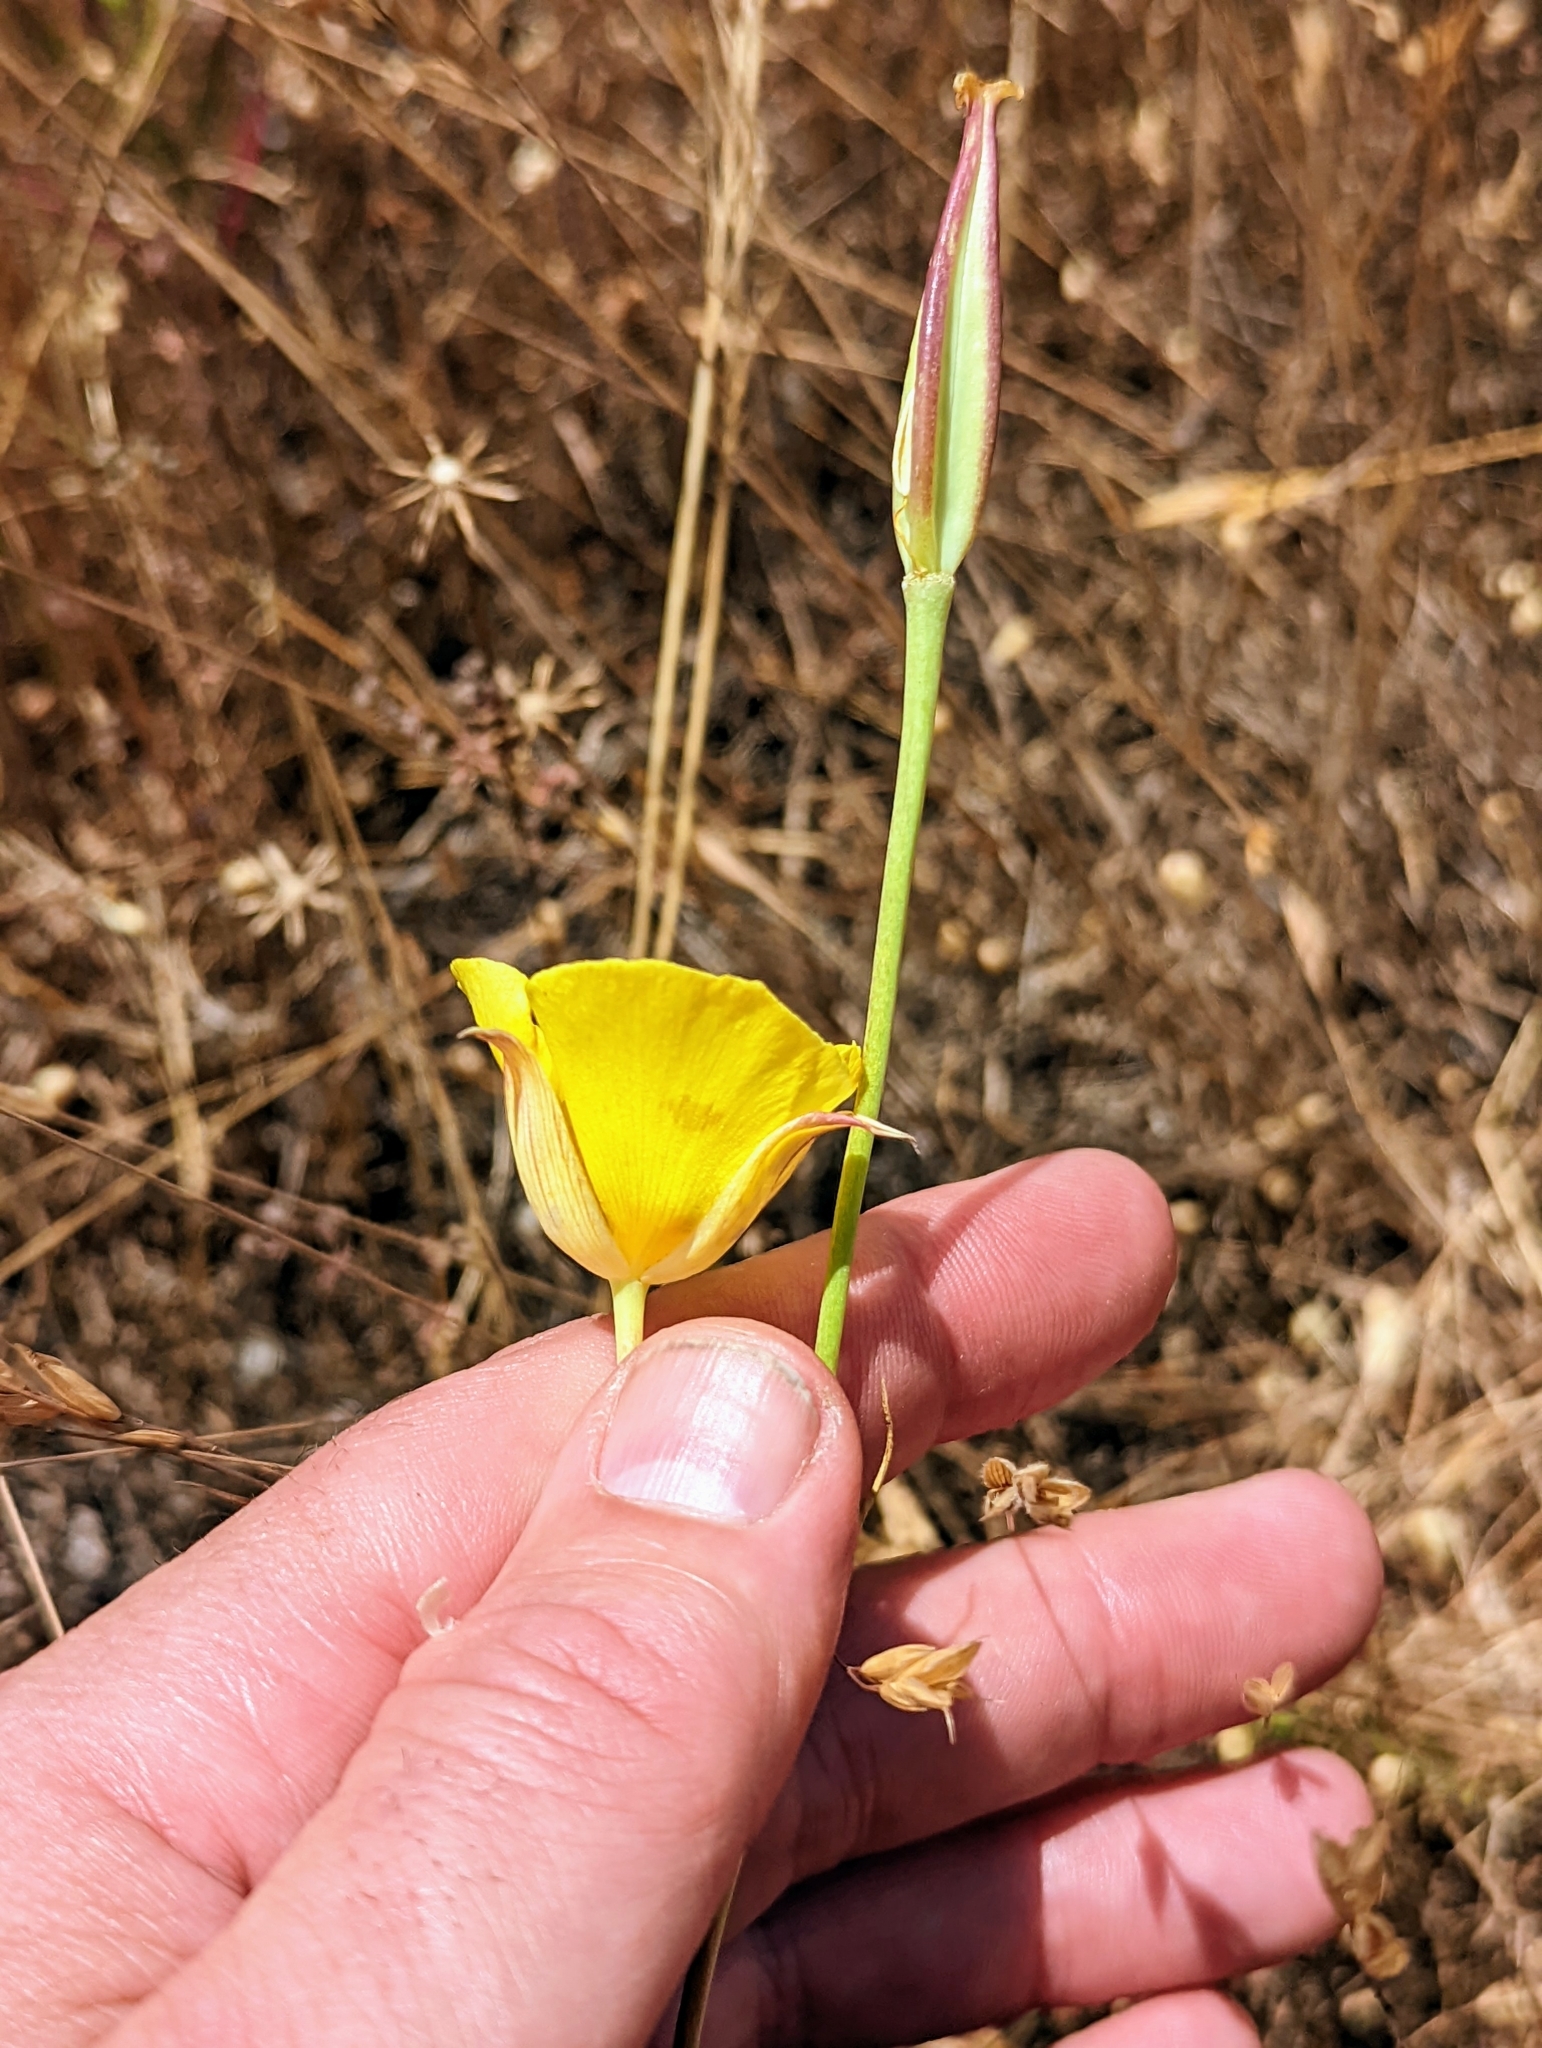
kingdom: Plantae
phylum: Tracheophyta
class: Liliopsida
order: Liliales
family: Liliaceae
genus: Calochortus
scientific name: Calochortus luteus
